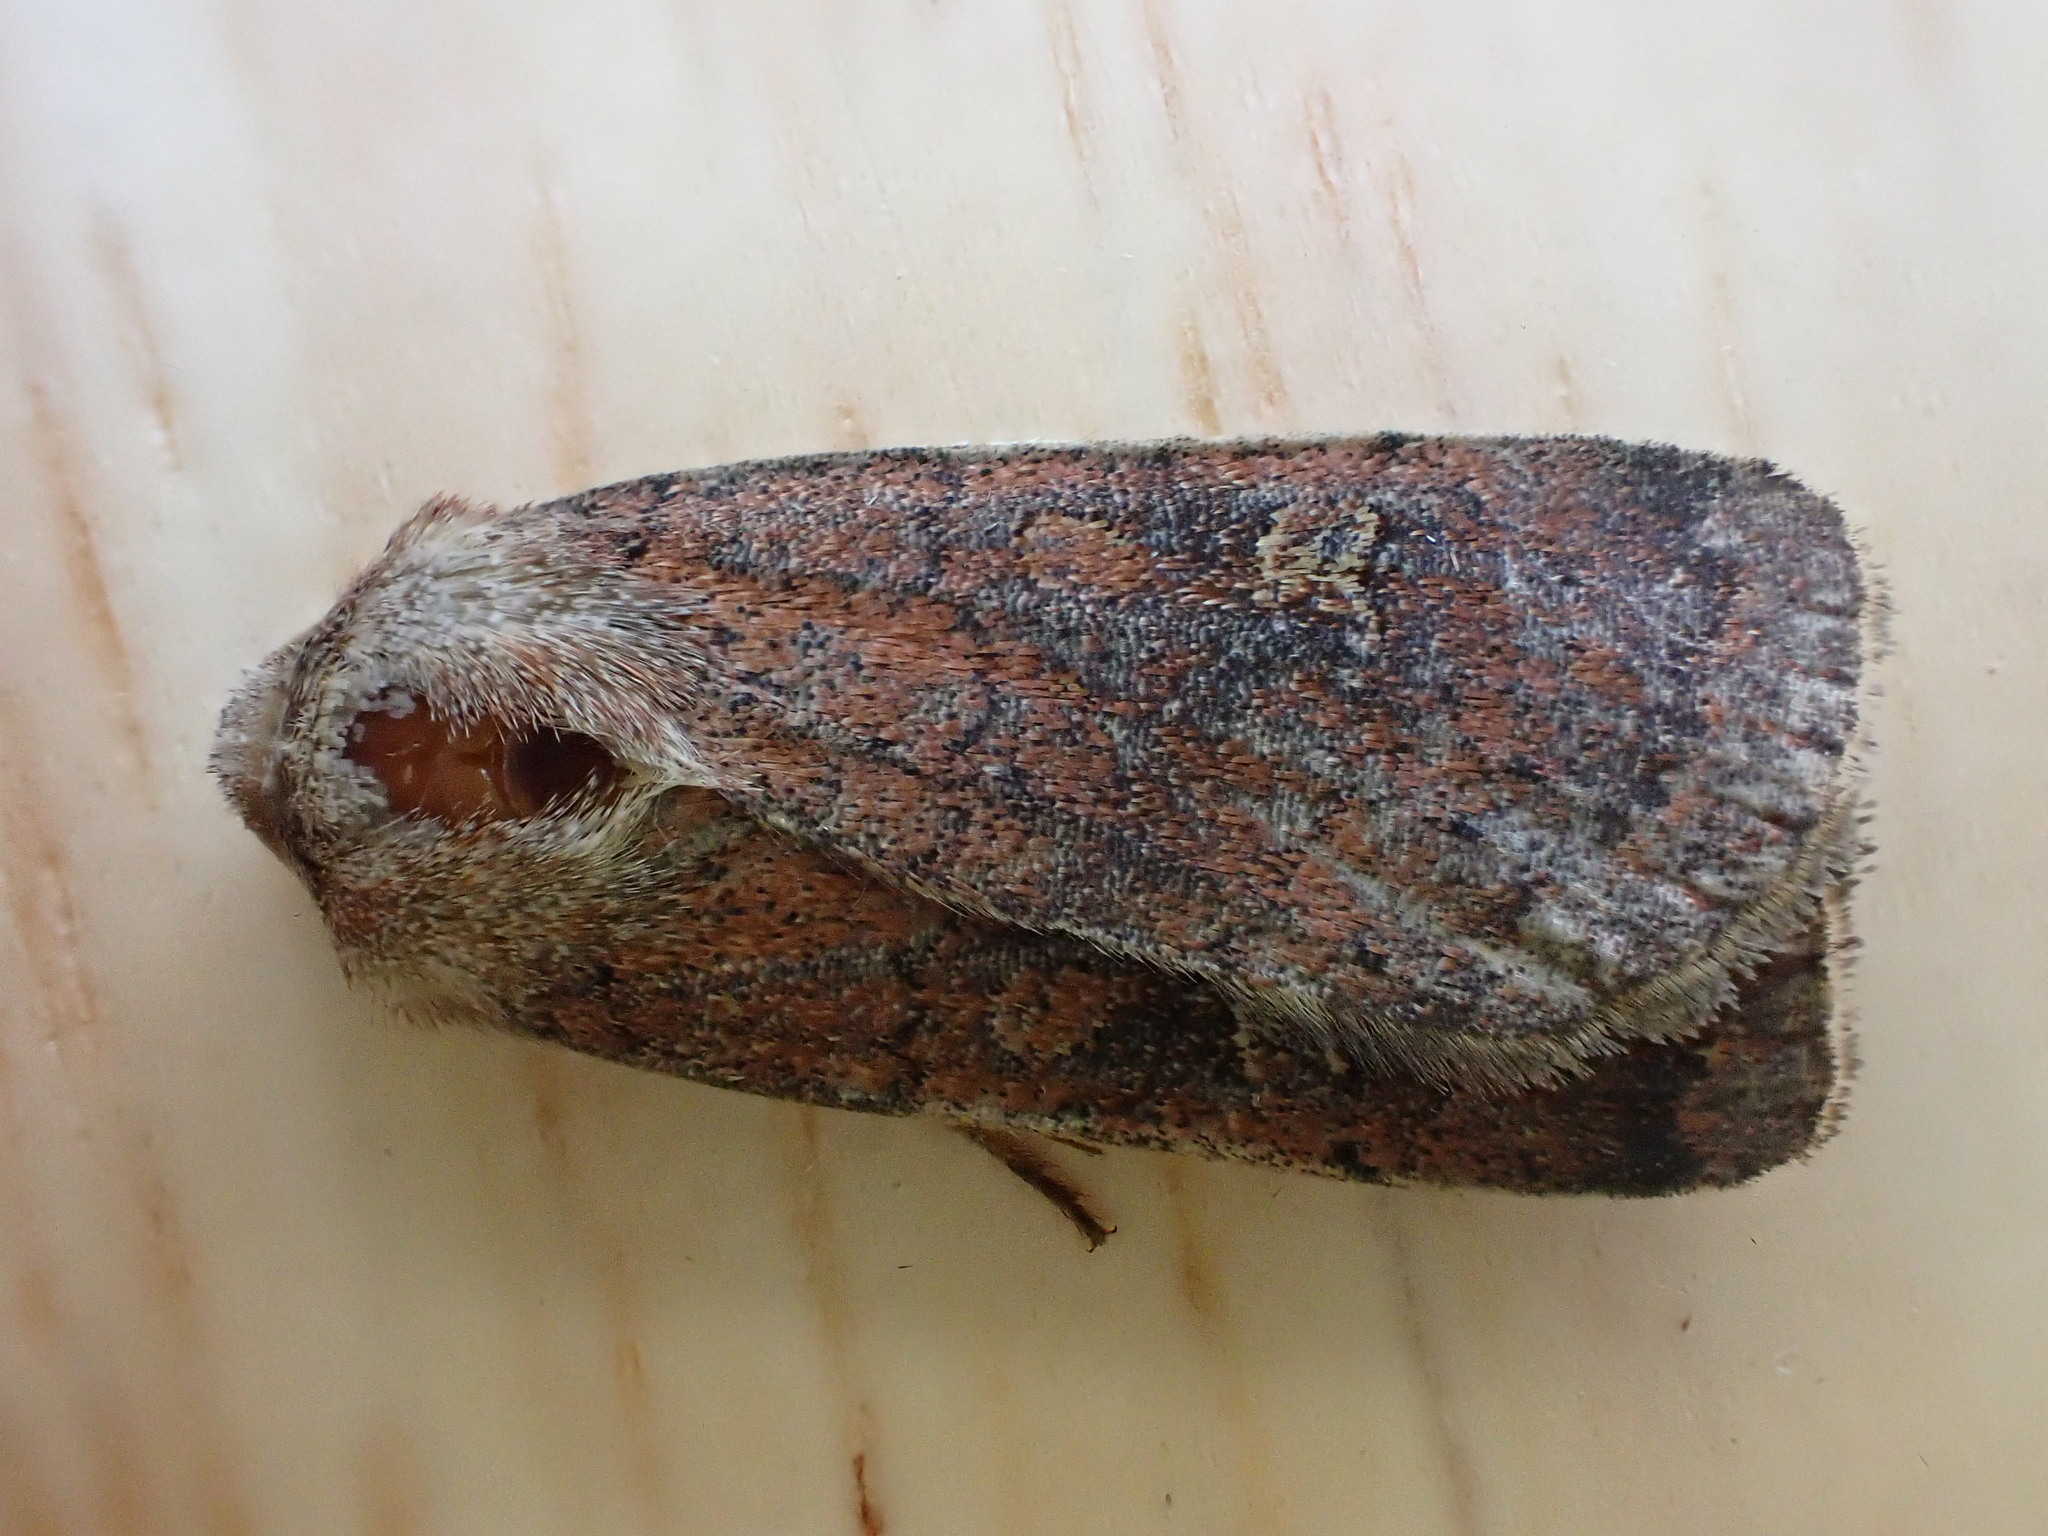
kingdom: Animalia
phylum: Arthropoda
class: Insecta
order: Lepidoptera
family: Noctuidae
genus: Xestia
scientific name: Xestia xanthographa
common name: Square-spot rustic
